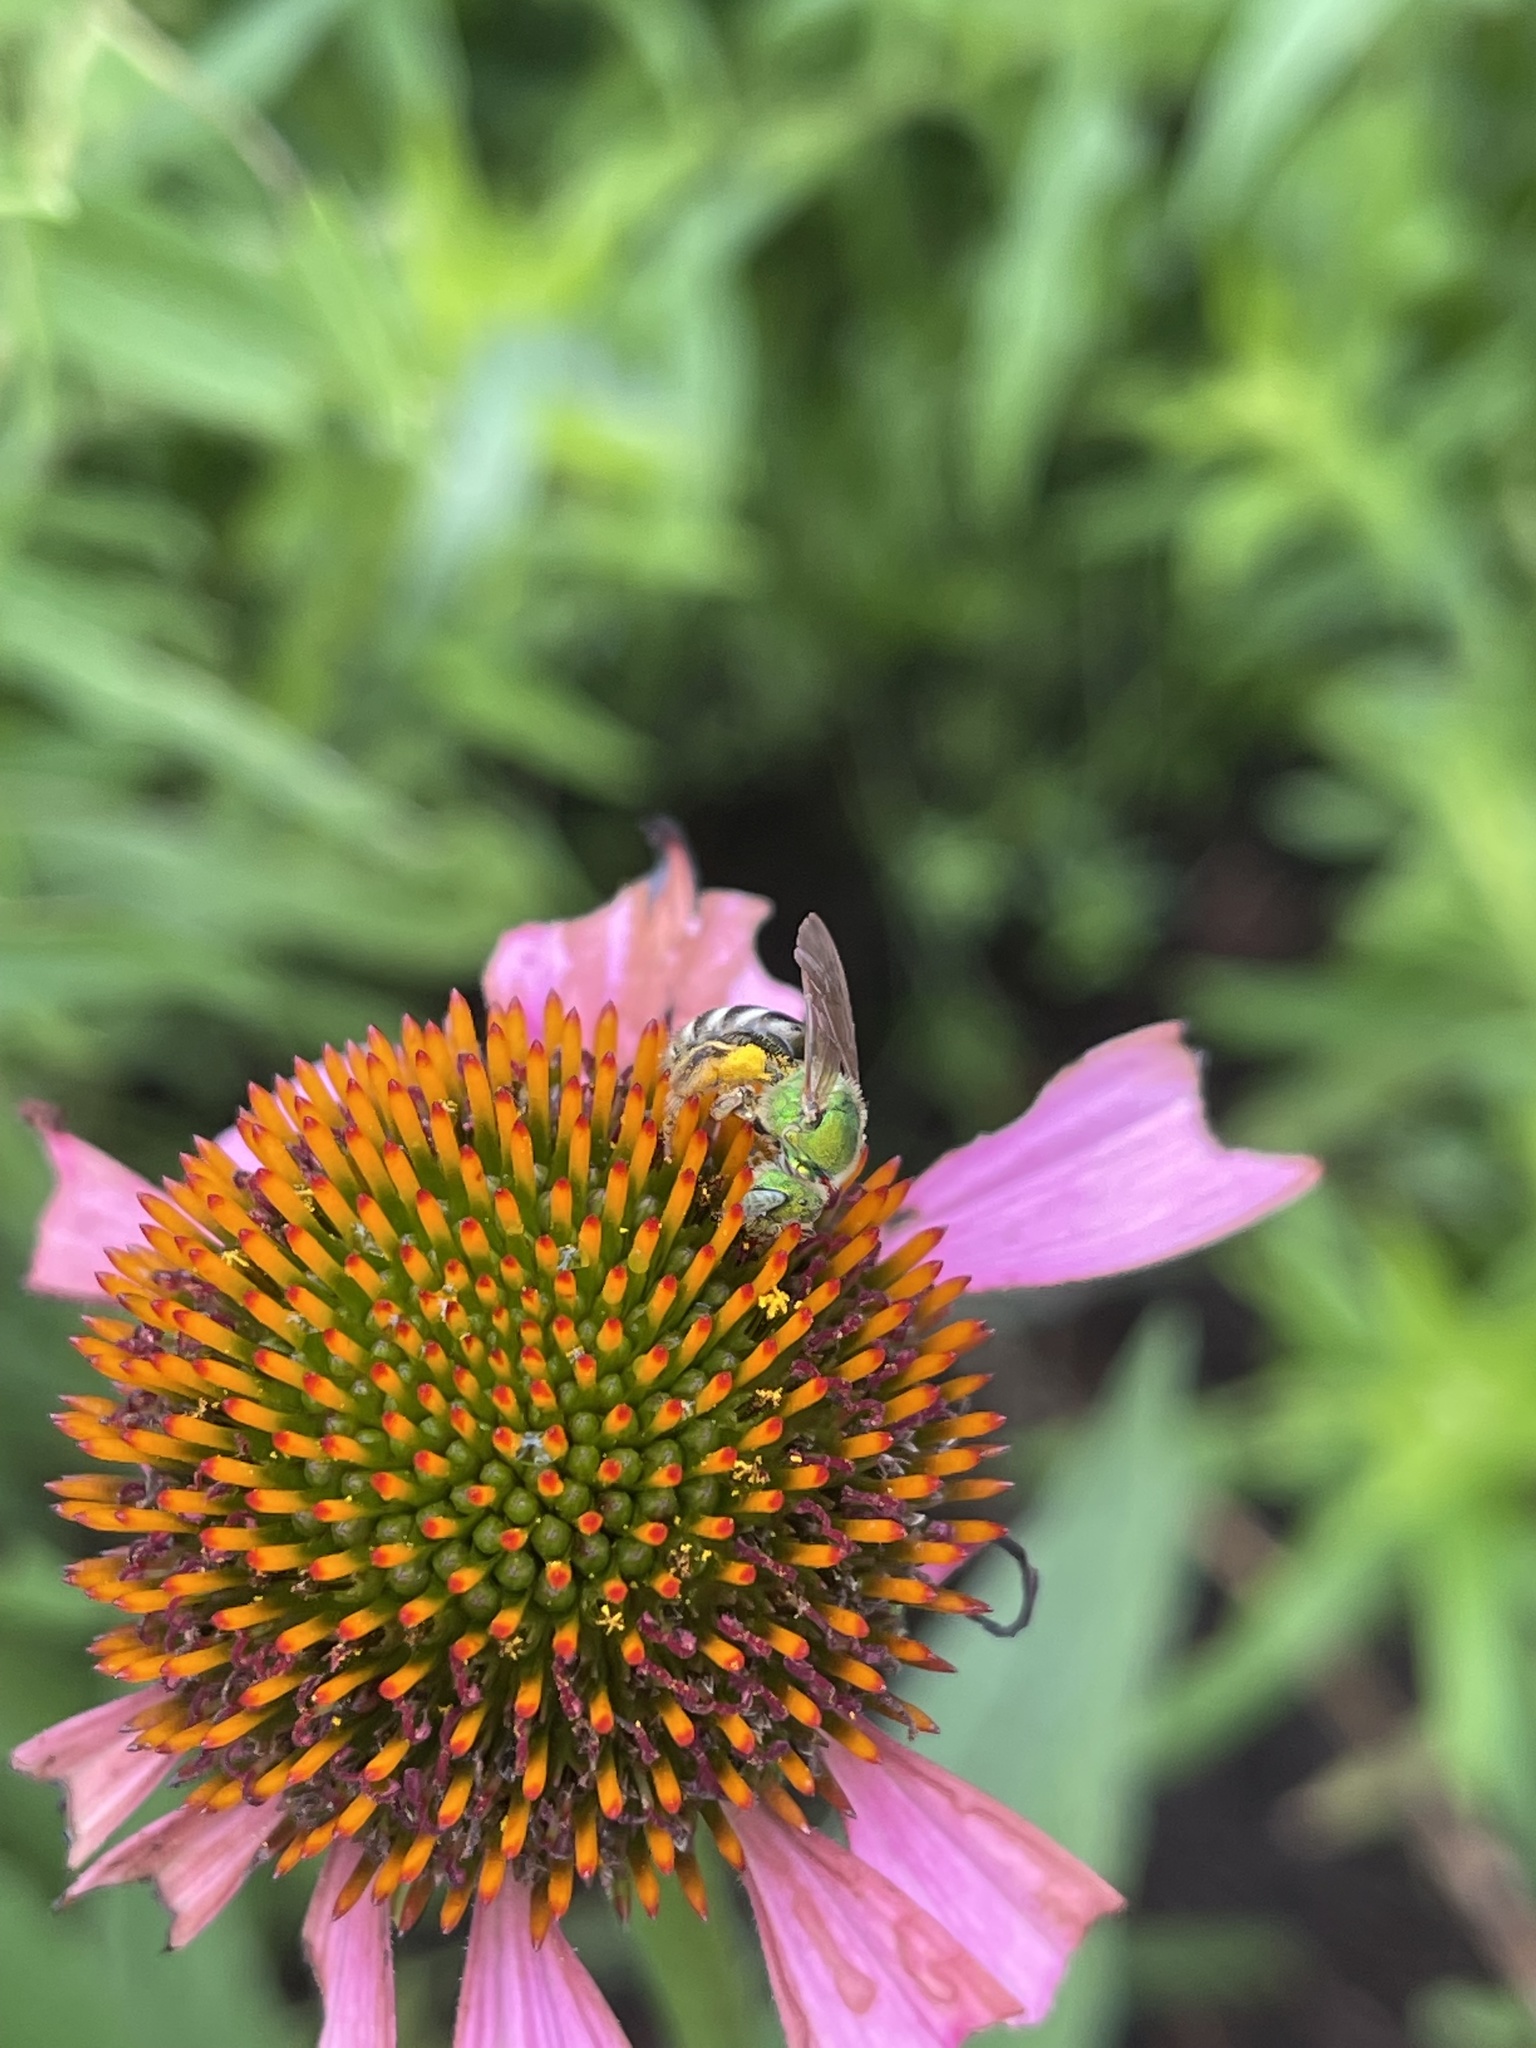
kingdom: Animalia
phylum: Arthropoda
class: Insecta
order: Hymenoptera
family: Halictidae
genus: Agapostemon
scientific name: Agapostemon virescens
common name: Bicolored striped sweat bee
